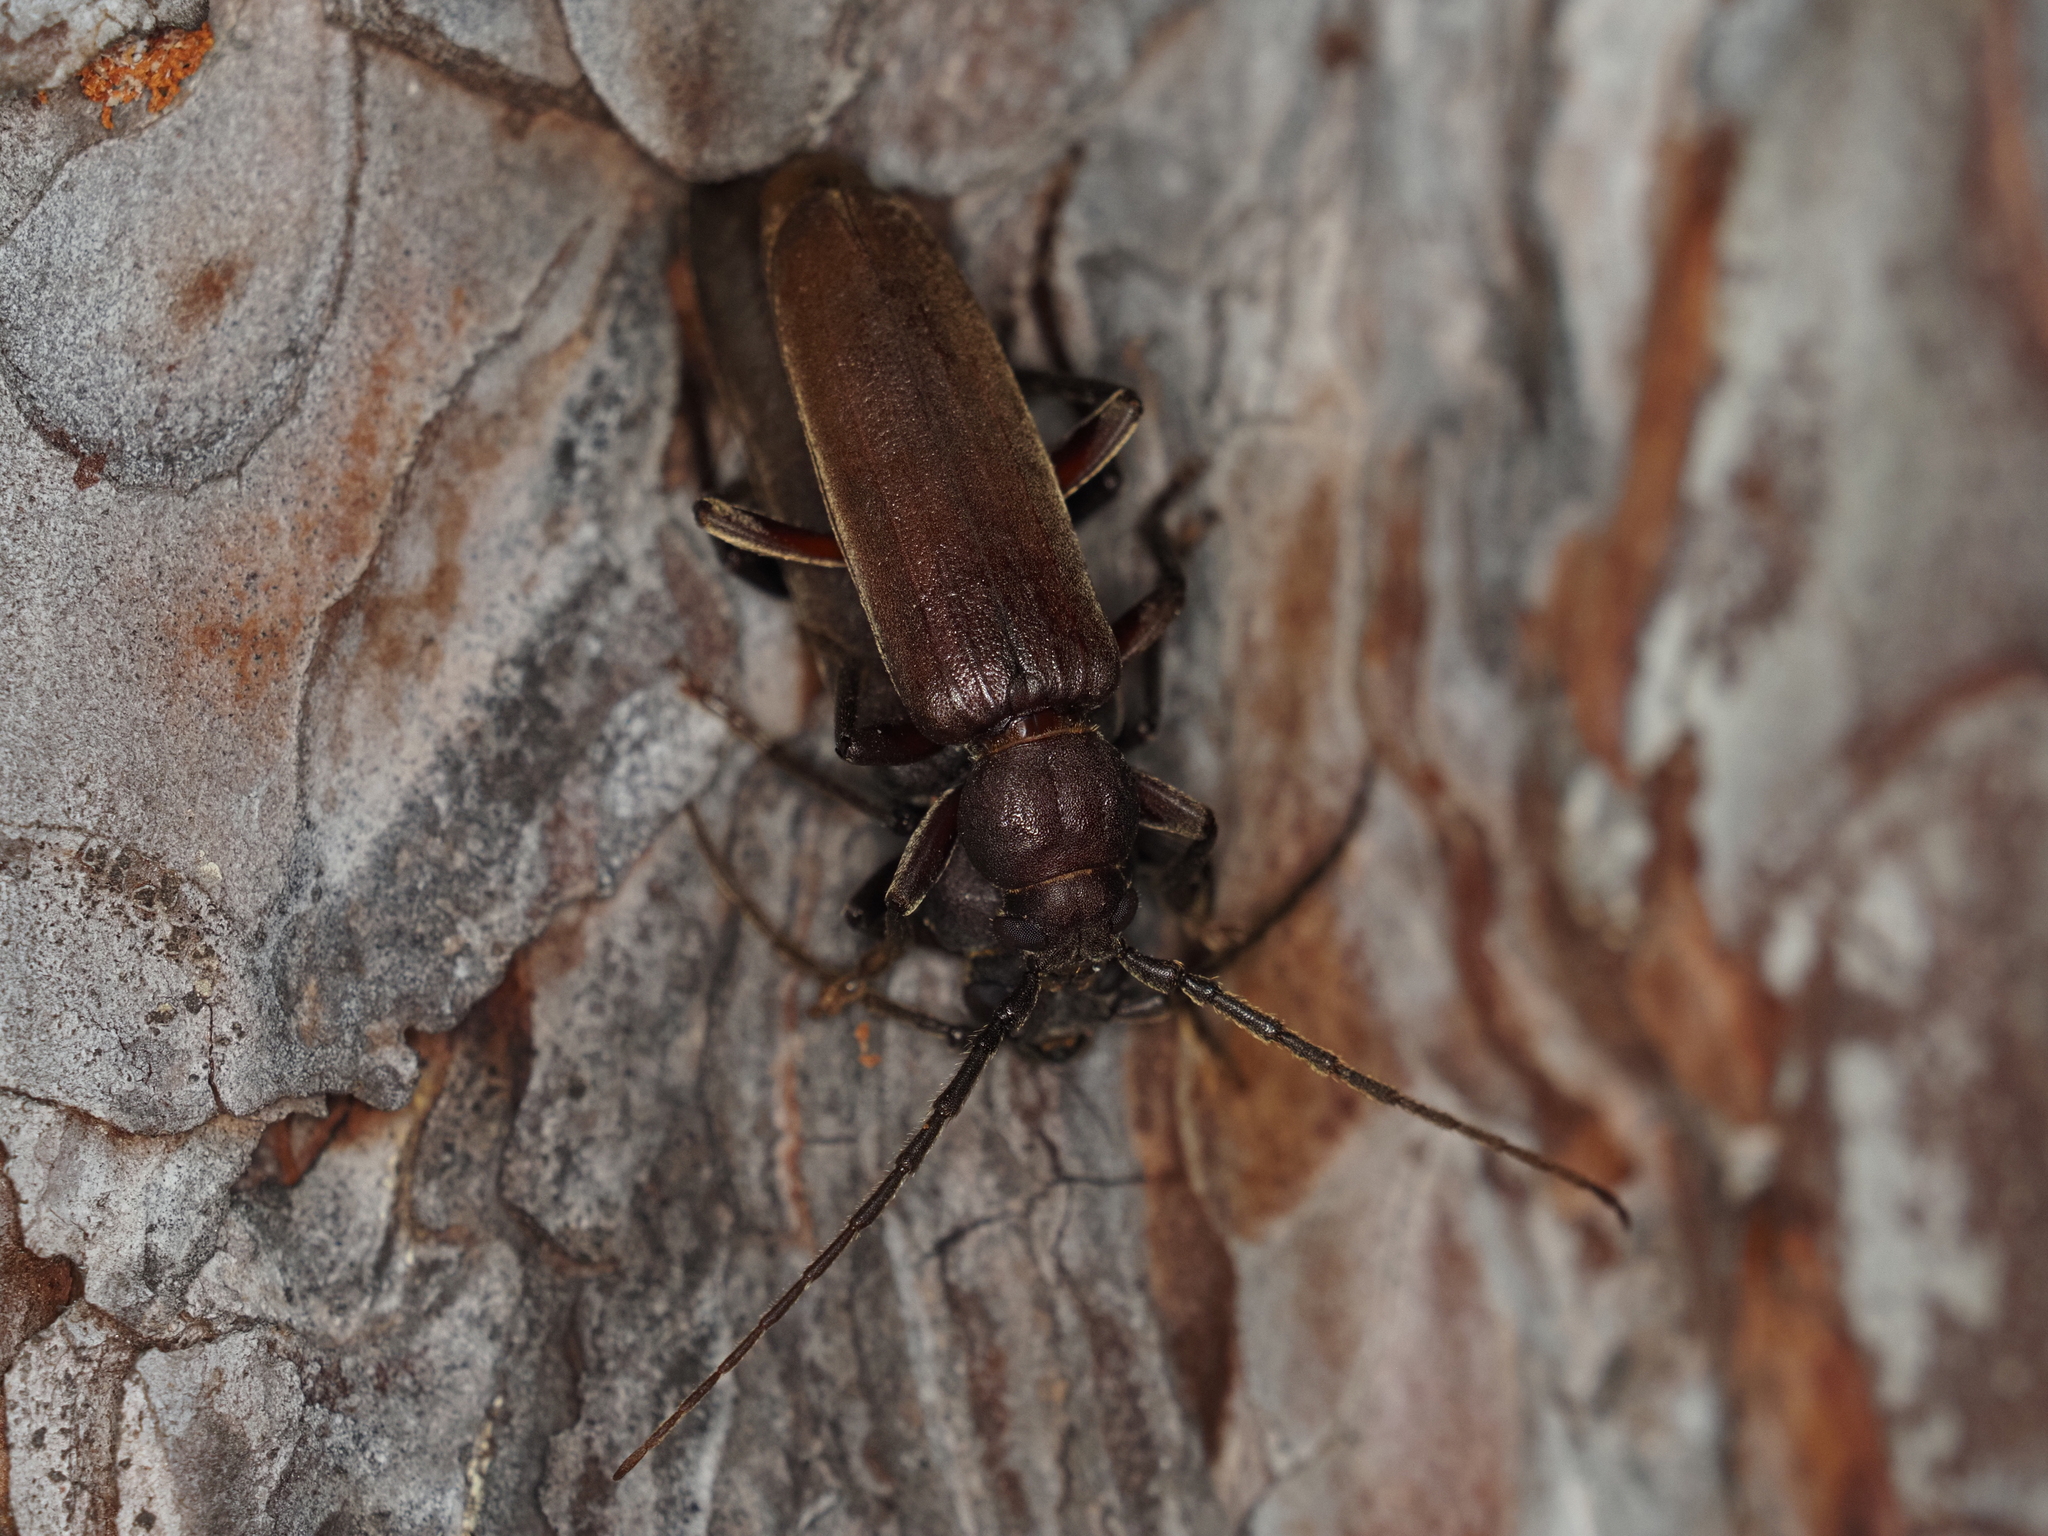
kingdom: Animalia
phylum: Arthropoda
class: Insecta
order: Coleoptera
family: Cerambycidae
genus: Arhopalus
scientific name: Arhopalus rusticus
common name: Rust pine borer
